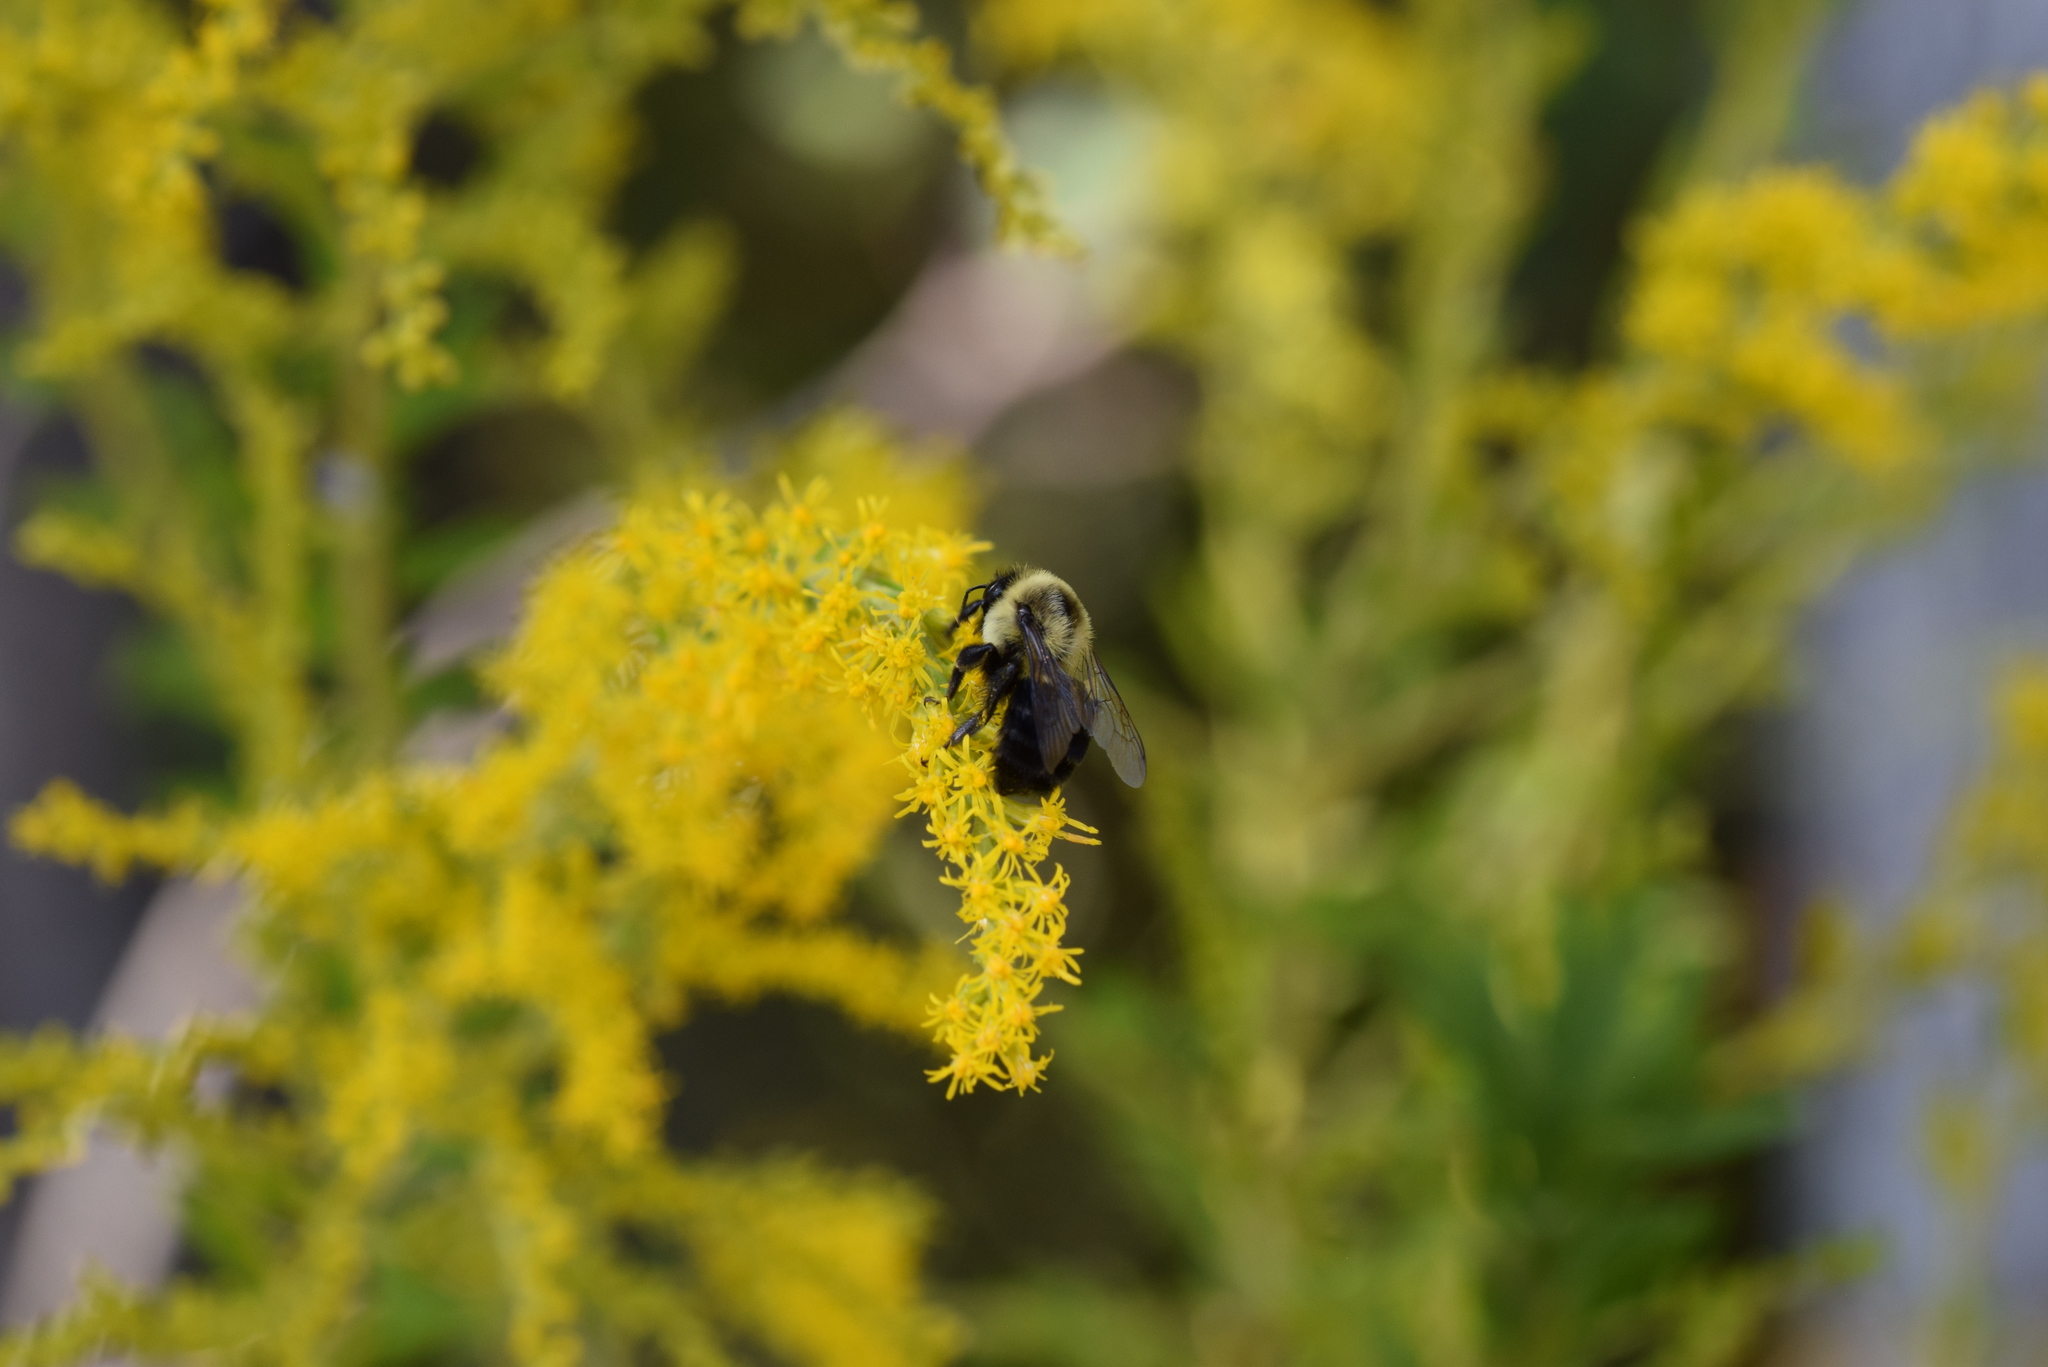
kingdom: Animalia
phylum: Arthropoda
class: Insecta
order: Hymenoptera
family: Apidae
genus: Bombus
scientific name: Bombus impatiens
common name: Common eastern bumble bee
